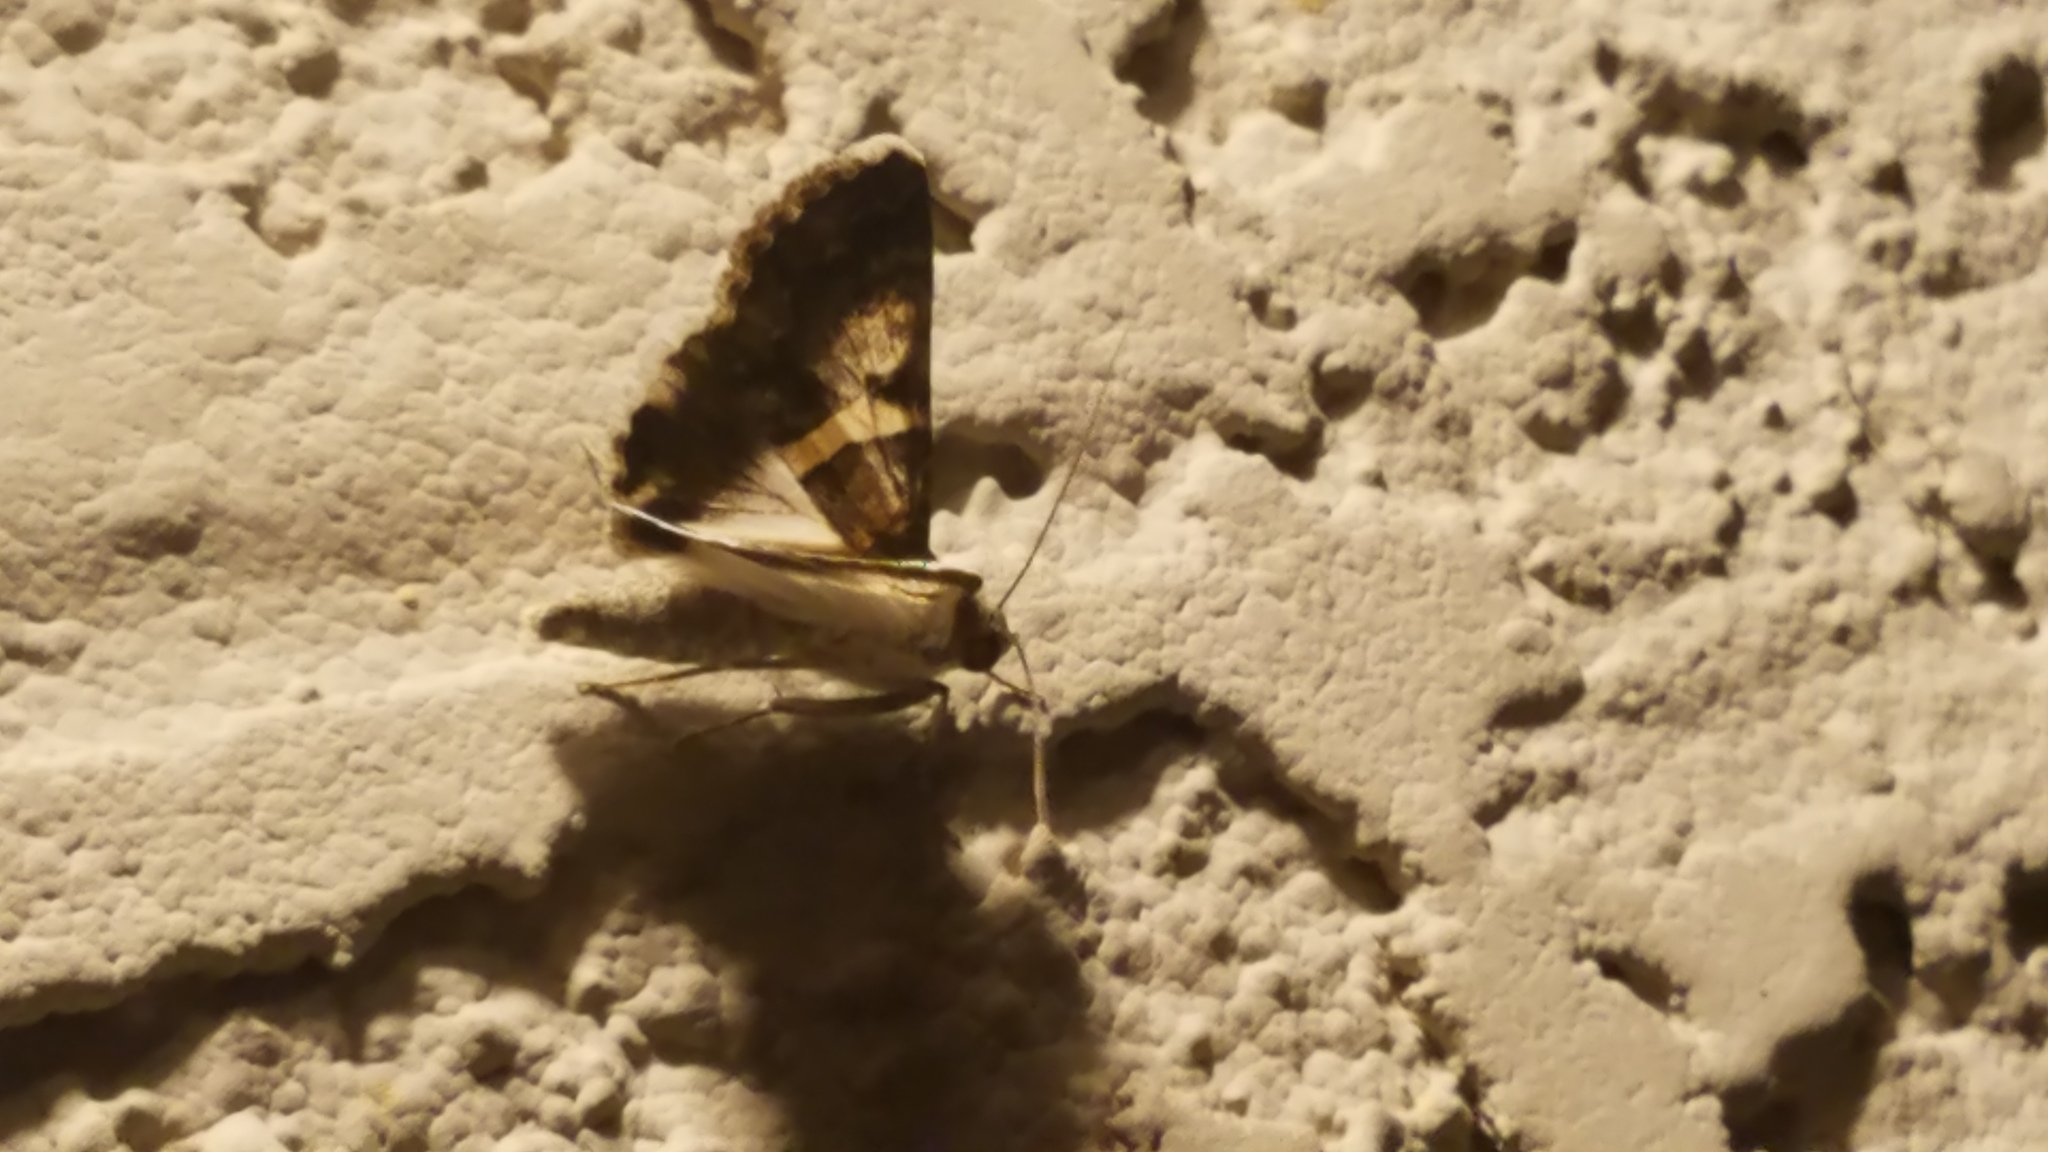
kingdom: Animalia
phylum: Arthropoda
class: Insecta
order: Lepidoptera
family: Erebidae
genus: Melipotis
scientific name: Melipotis jucunda
